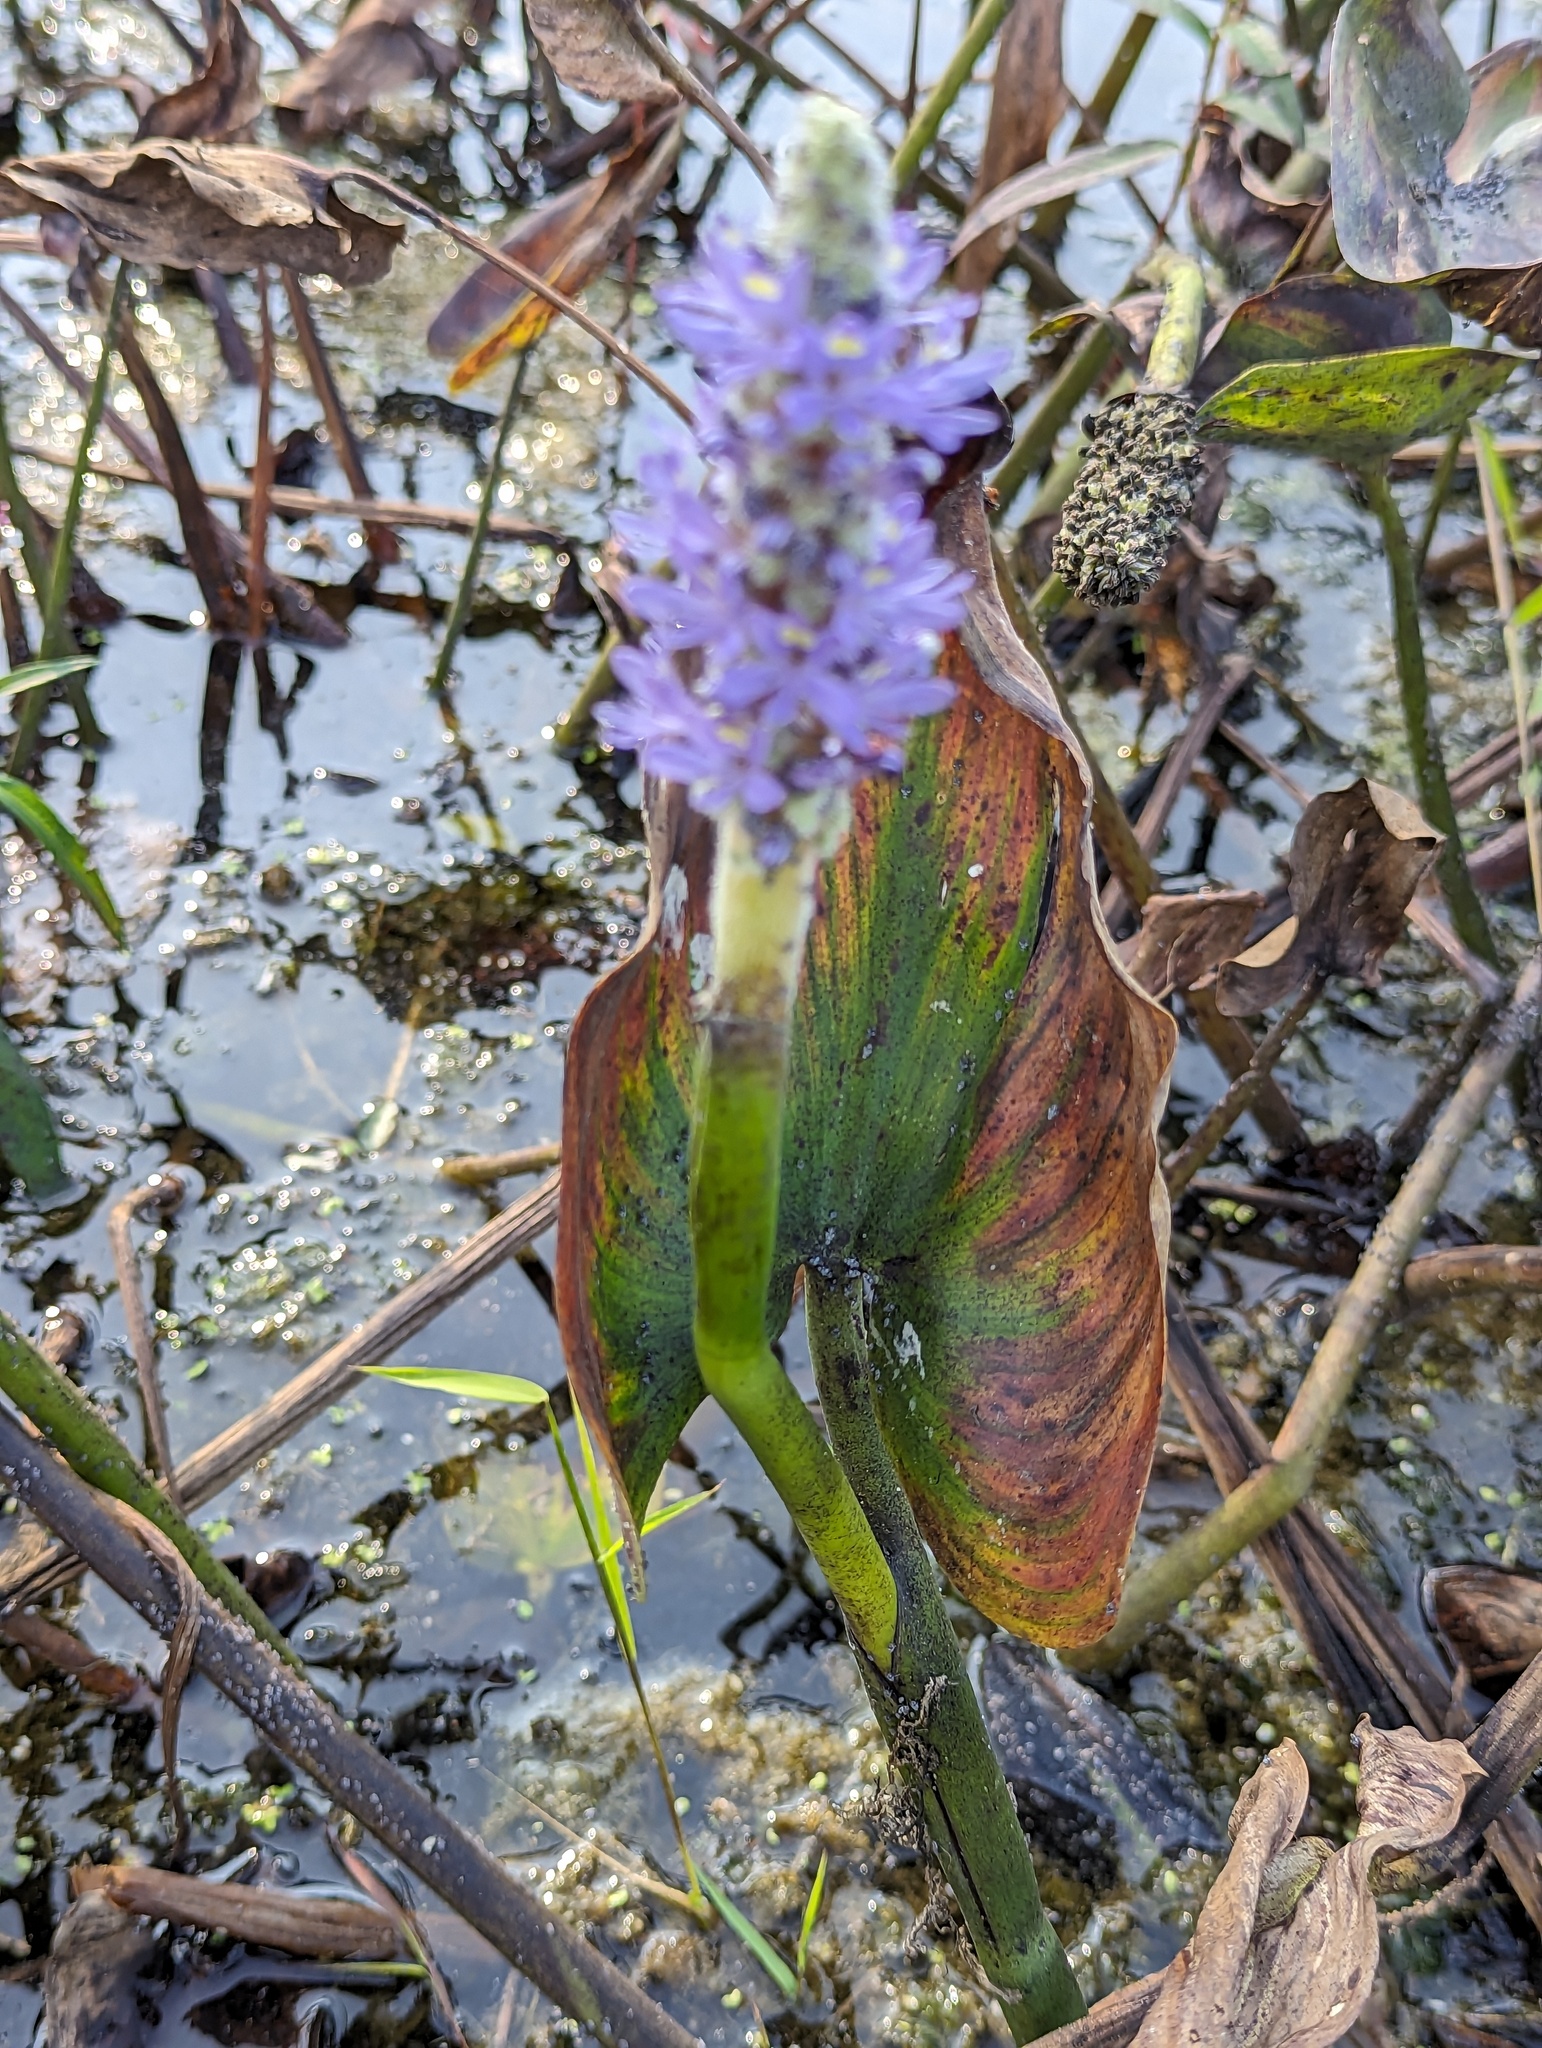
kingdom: Plantae
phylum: Tracheophyta
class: Liliopsida
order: Commelinales
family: Pontederiaceae
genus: Pontederia
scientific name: Pontederia cordata
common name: Pickerelweed
